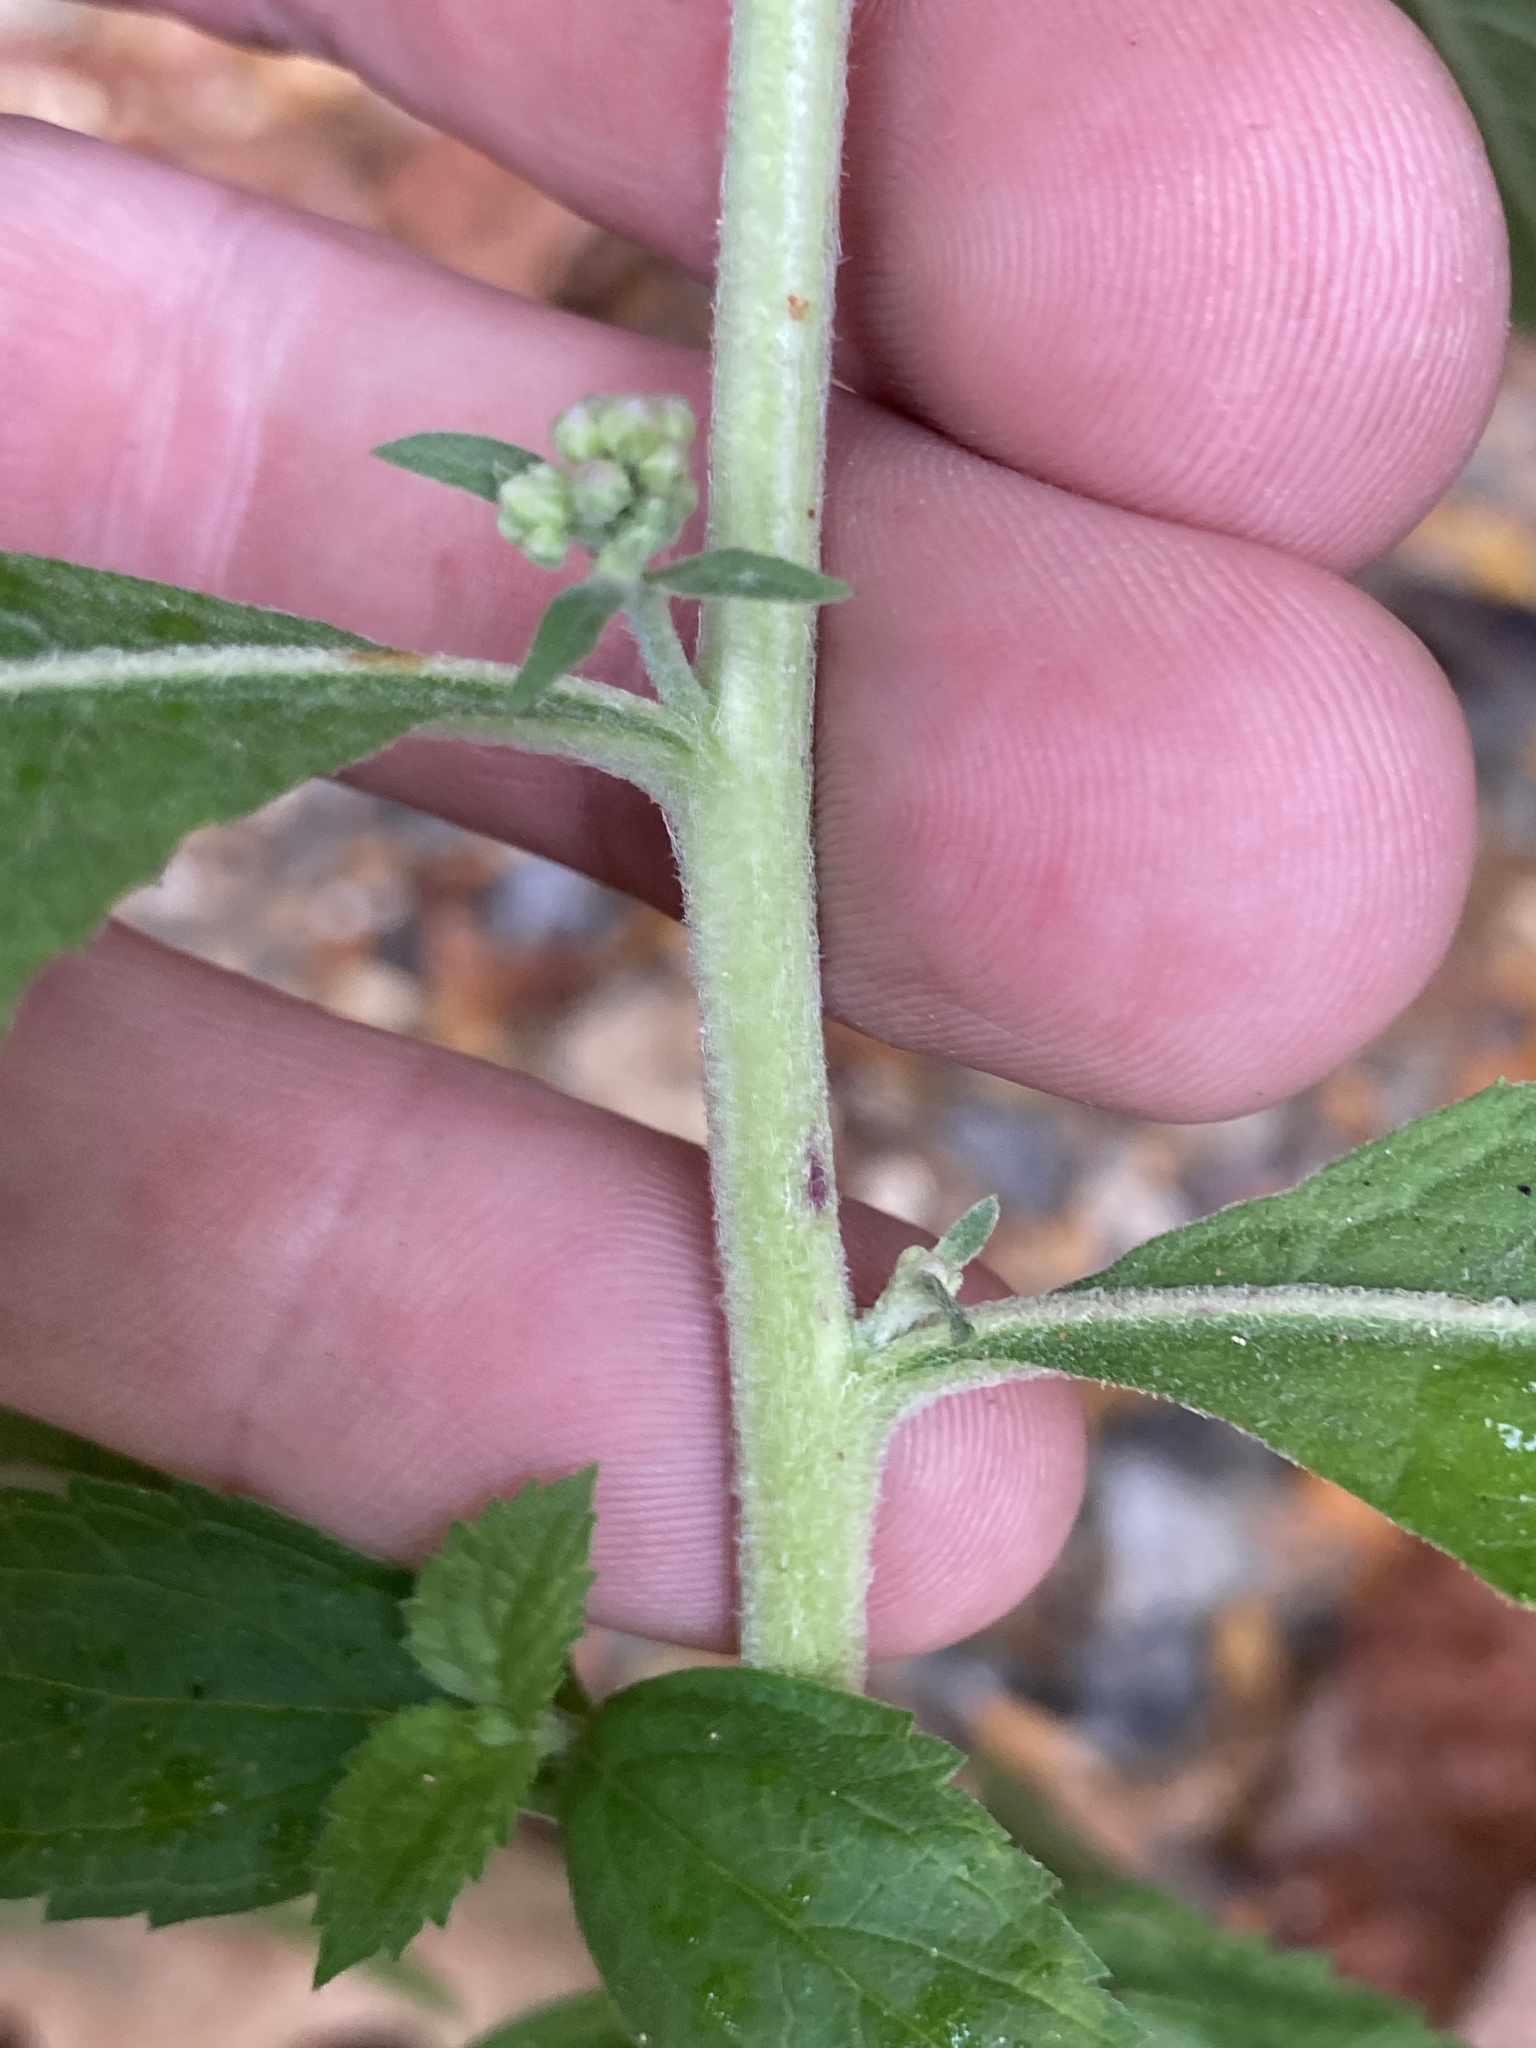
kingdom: Plantae
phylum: Tracheophyta
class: Magnoliopsida
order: Asterales
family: Asteraceae
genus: Pluchea
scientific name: Pluchea camphorata
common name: Camphor pluchea
